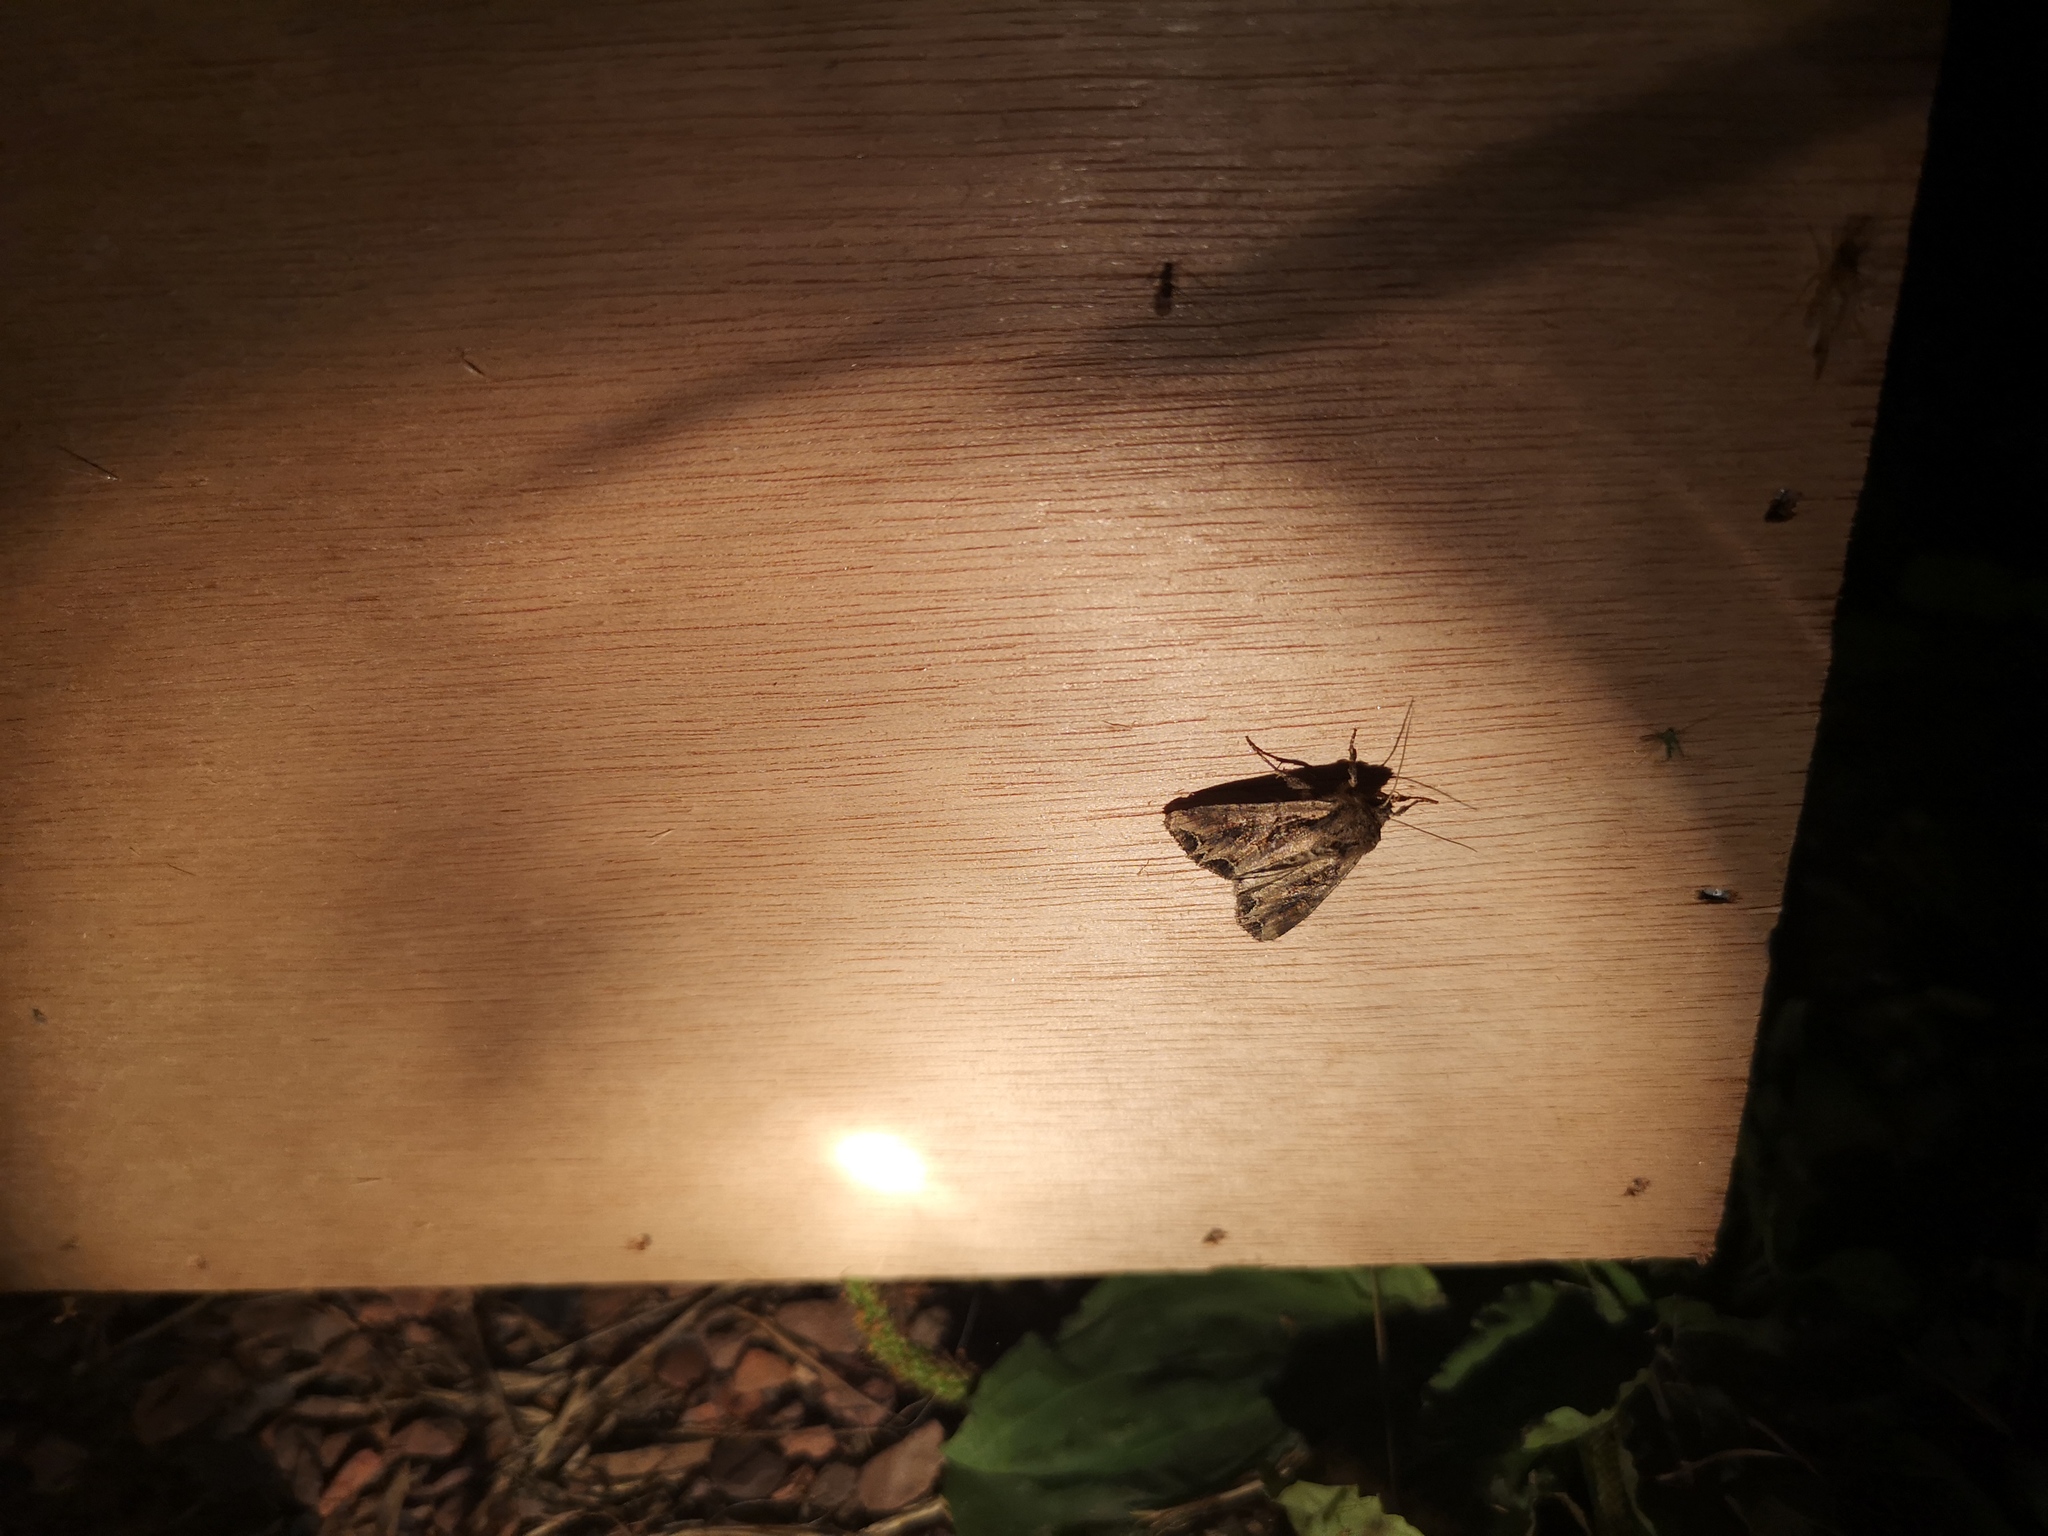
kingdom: Animalia
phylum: Arthropoda
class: Insecta
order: Lepidoptera
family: Noctuidae
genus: Lacanobia
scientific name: Lacanobia suasa
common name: Dog's tooth
